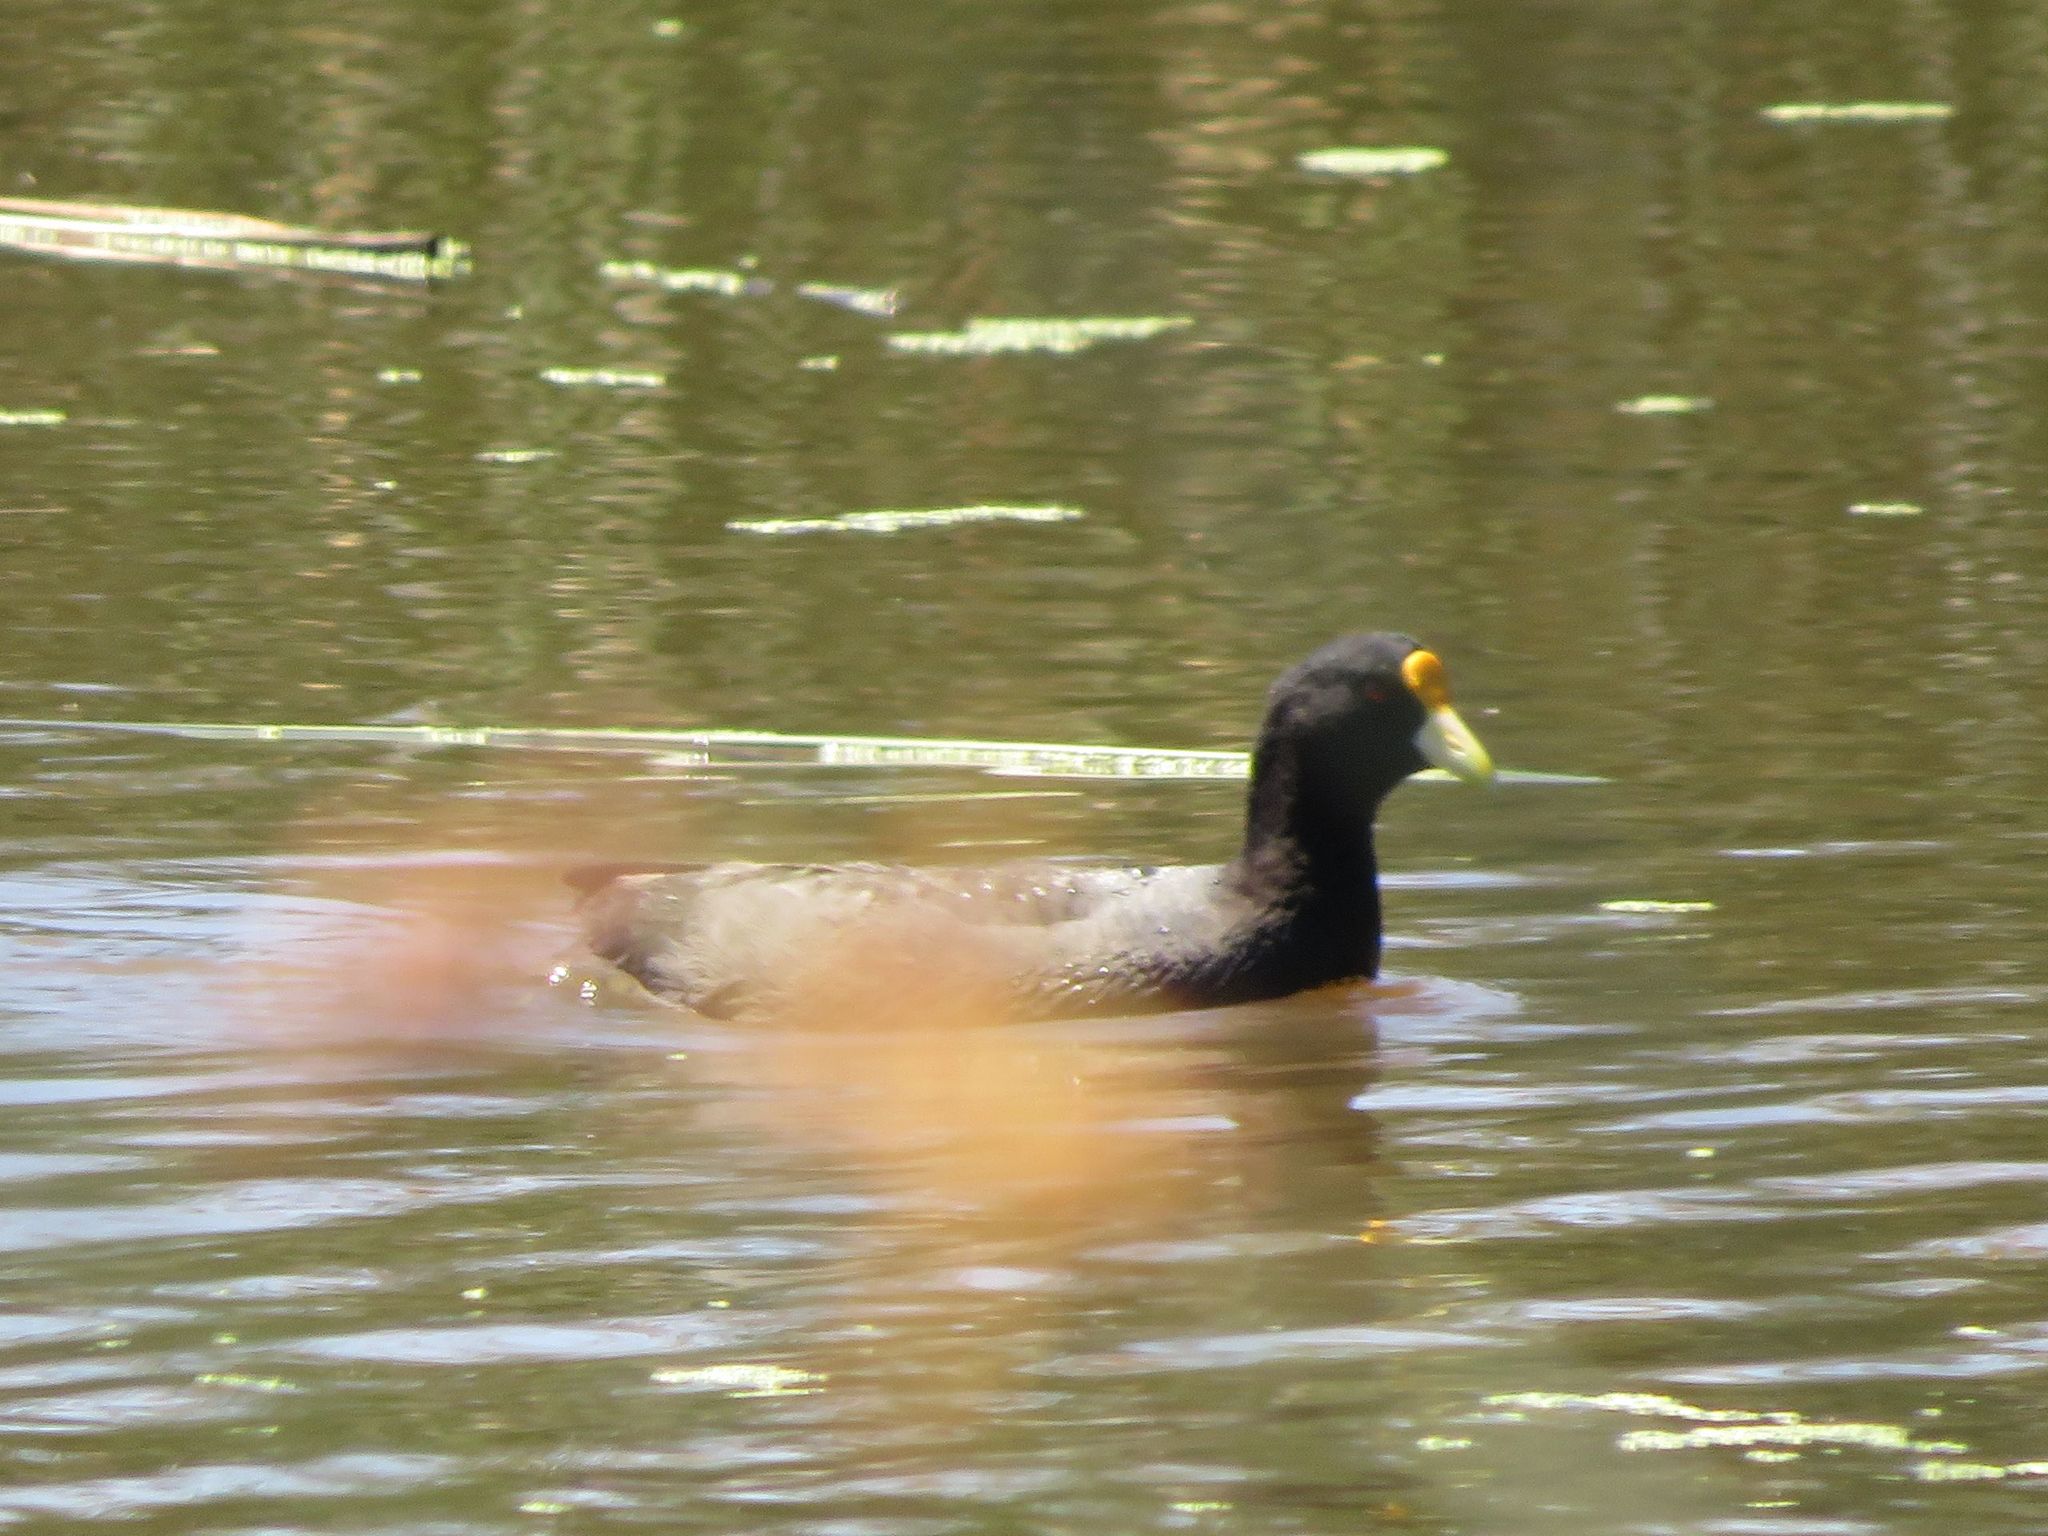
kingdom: Animalia
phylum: Chordata
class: Aves
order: Gruiformes
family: Rallidae
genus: Fulica
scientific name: Fulica leucoptera
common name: White-winged coot
